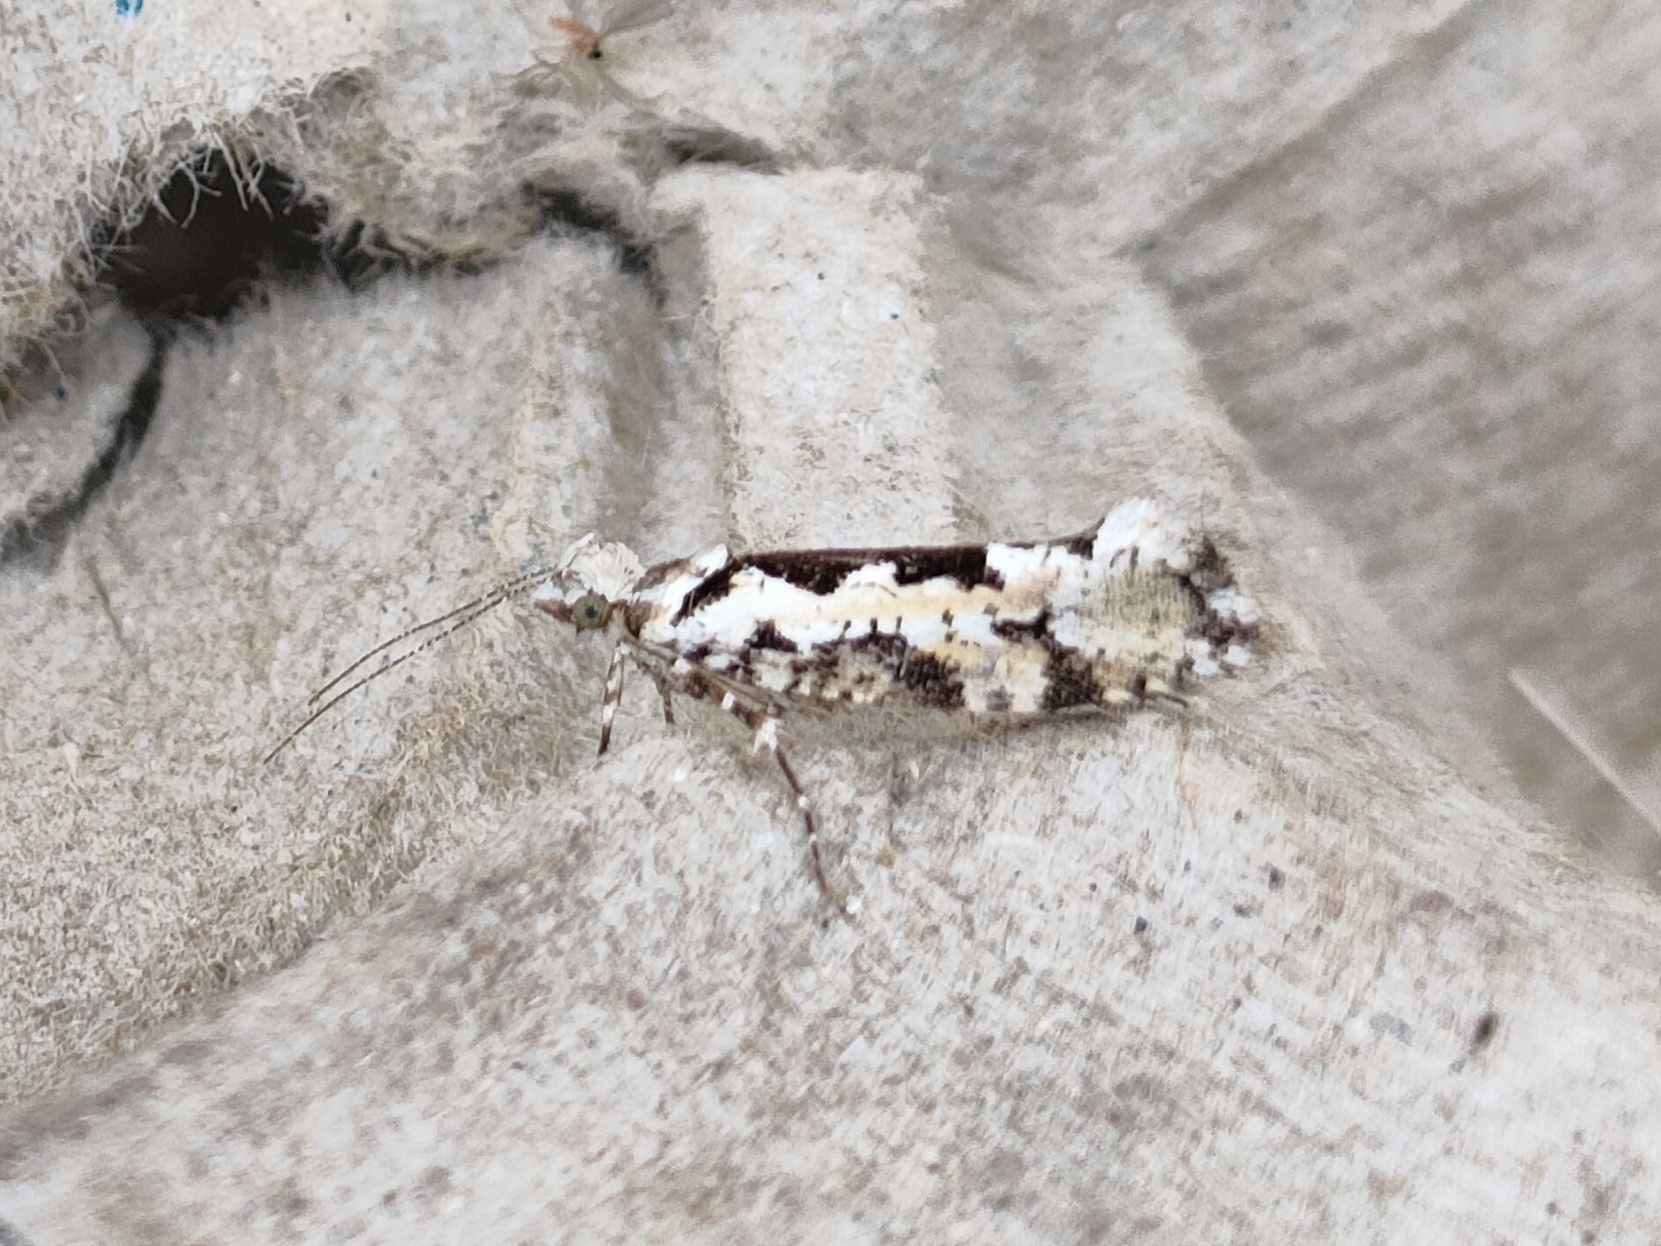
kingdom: Animalia
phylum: Arthropoda
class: Insecta
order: Lepidoptera
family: Plutellidae
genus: Ypsolophus
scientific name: Ypsolophus sequella
